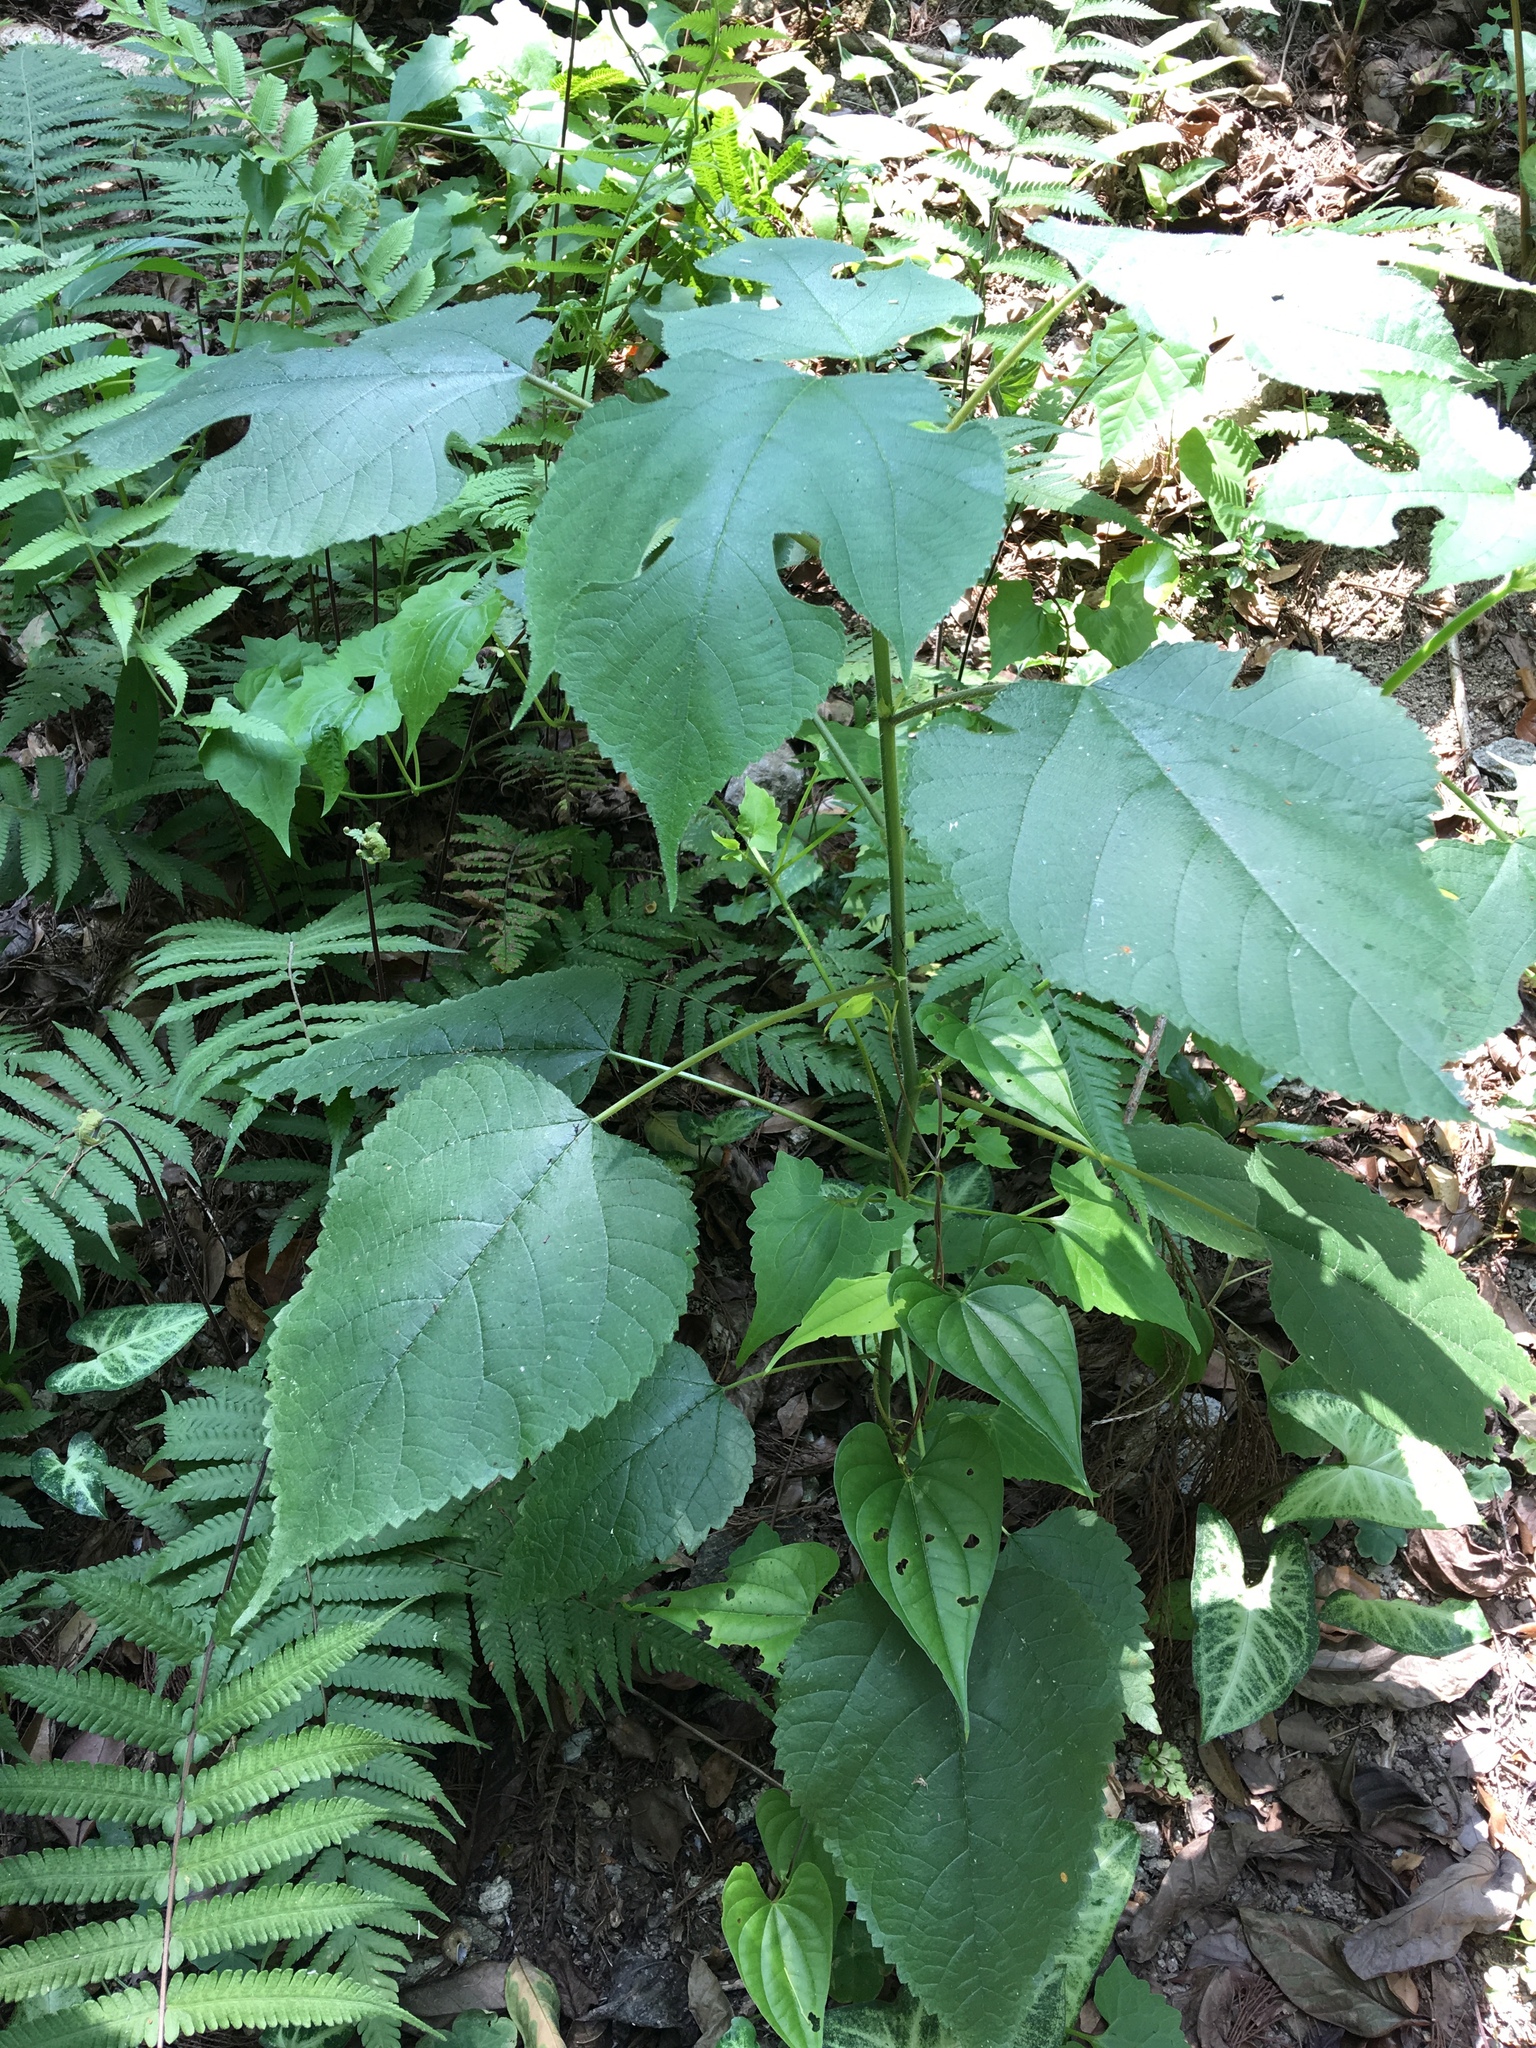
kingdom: Plantae
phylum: Tracheophyta
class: Magnoliopsida
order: Rosales
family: Moraceae
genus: Broussonetia
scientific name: Broussonetia papyrifera
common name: Paper mulberry
